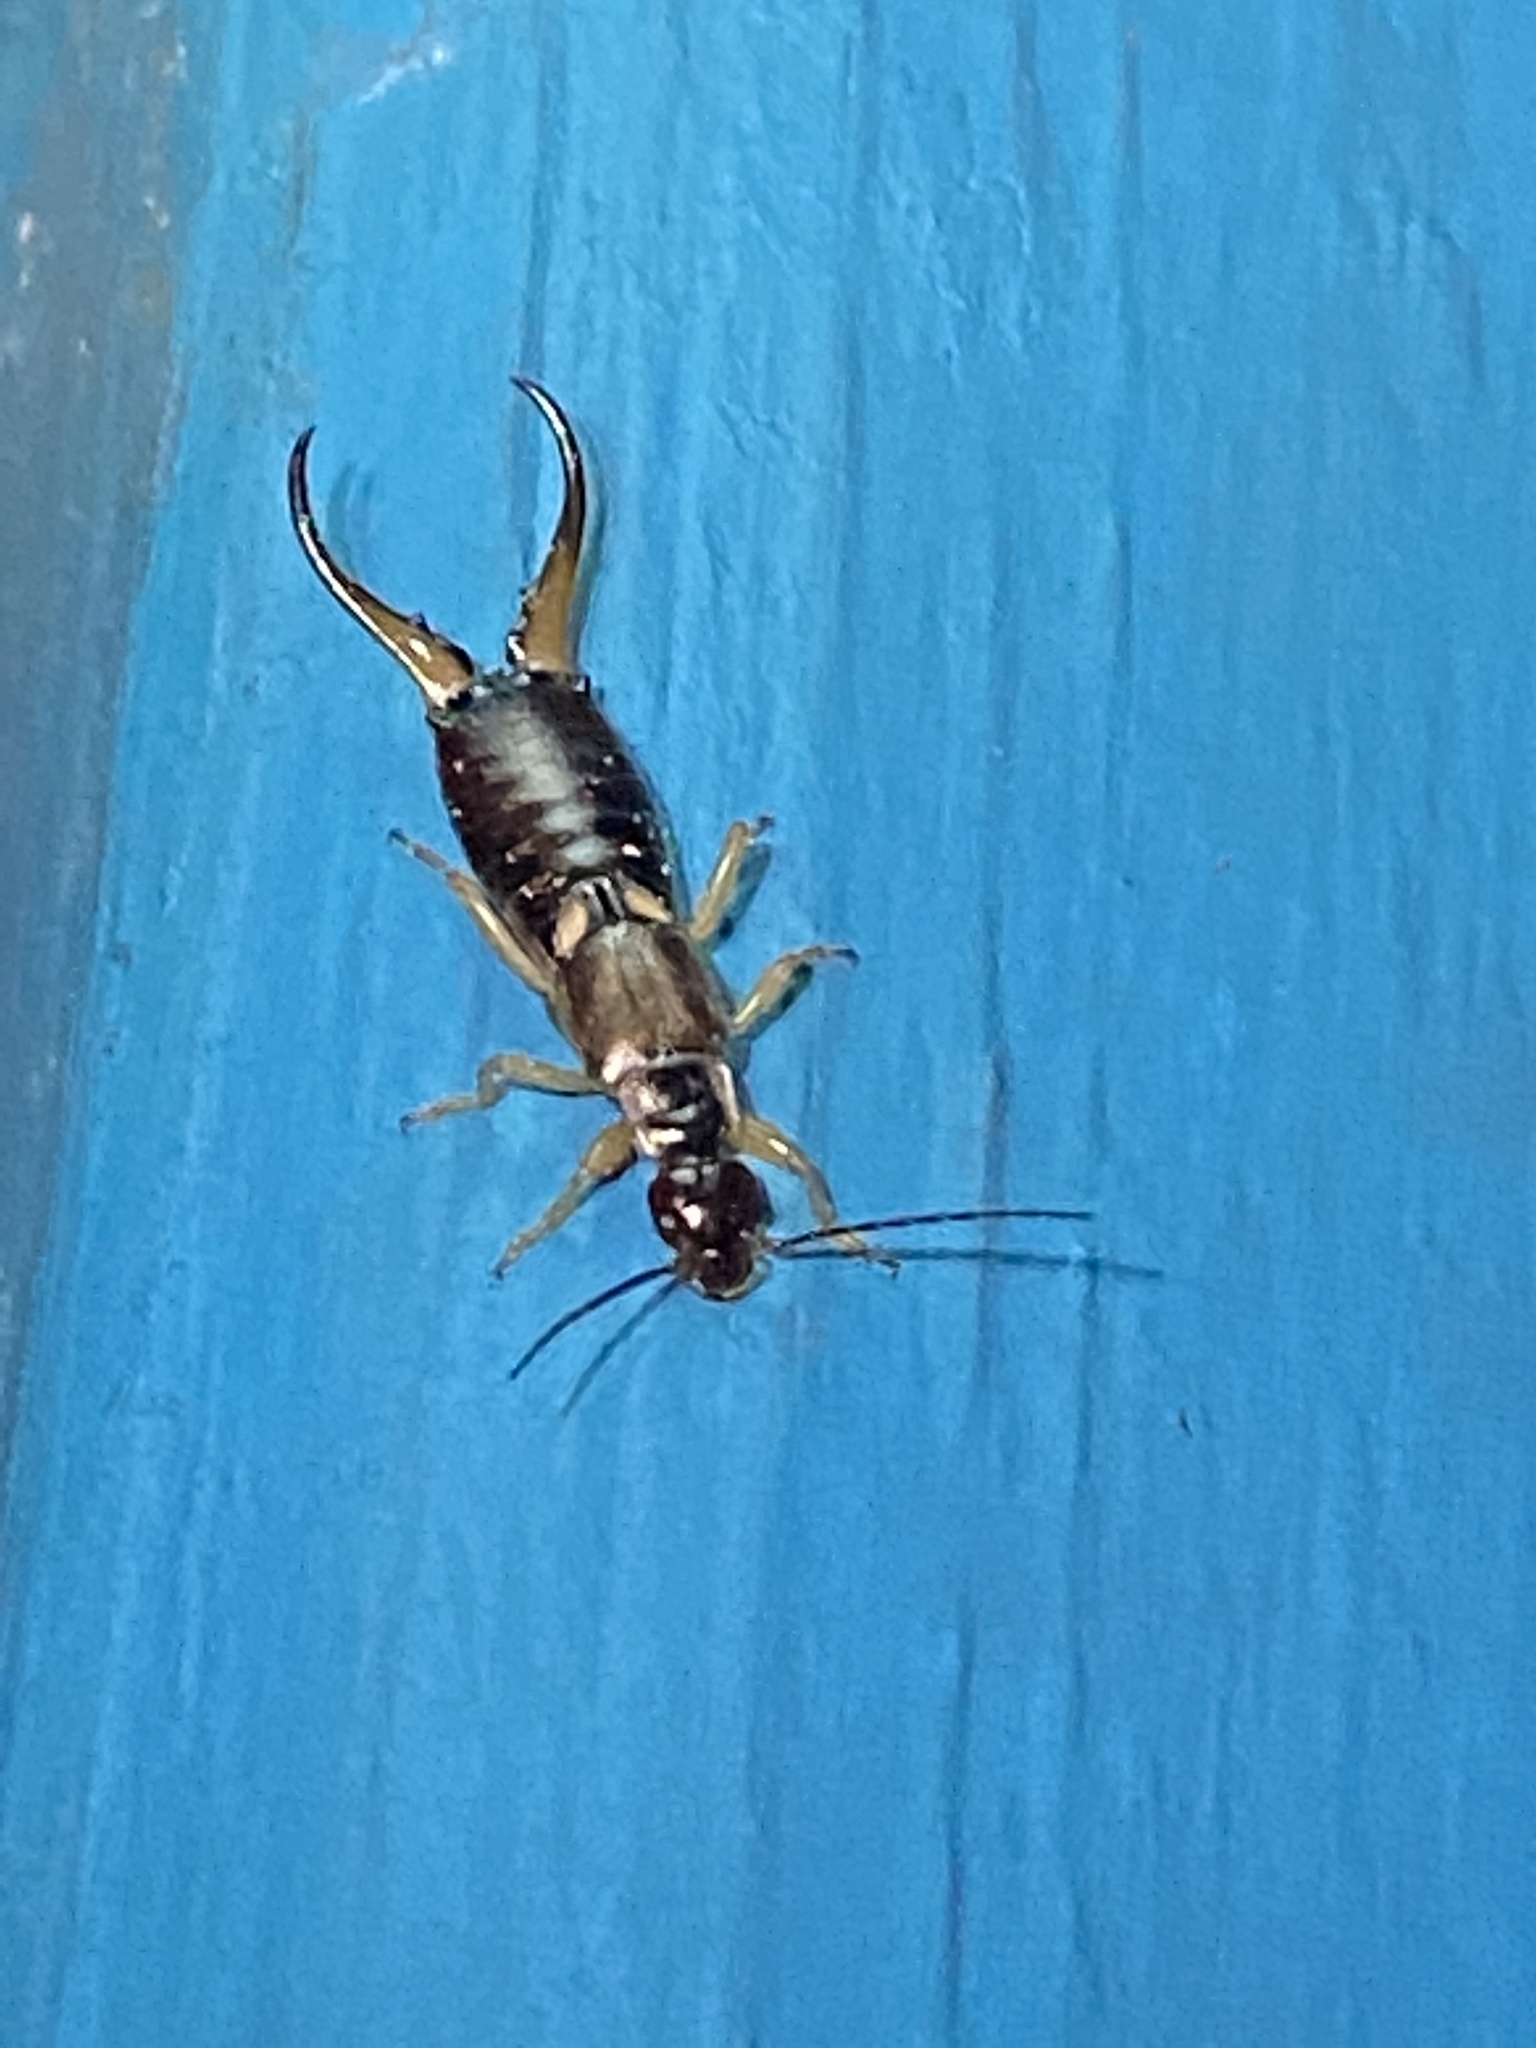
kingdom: Animalia
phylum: Arthropoda
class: Insecta
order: Dermaptera
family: Forficulidae
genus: Forficula
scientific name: Forficula
